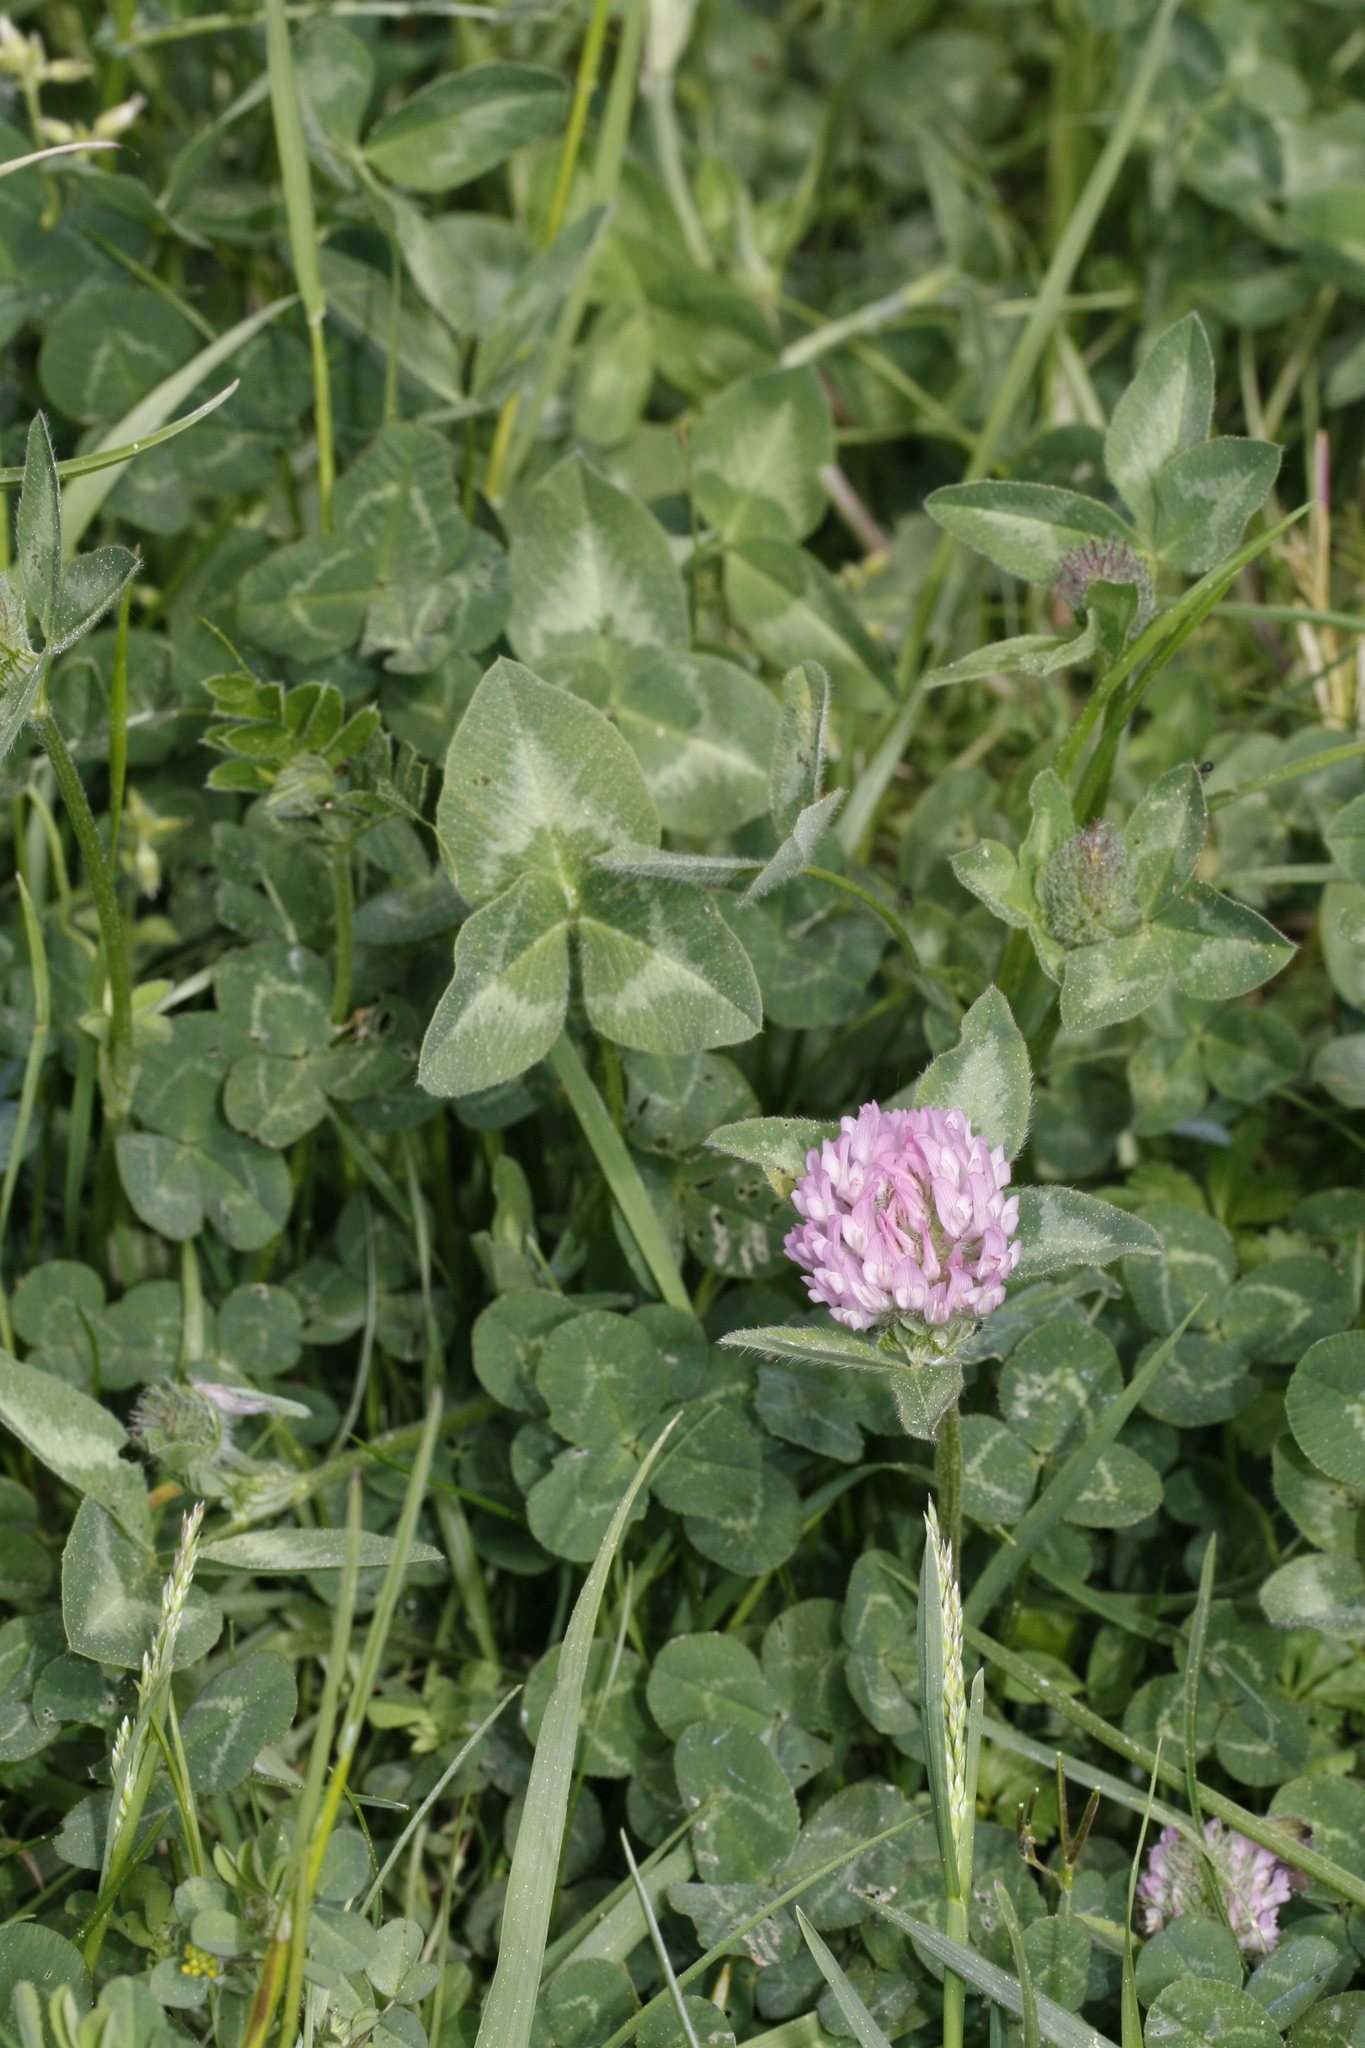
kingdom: Plantae
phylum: Tracheophyta
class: Magnoliopsida
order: Fabales
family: Fabaceae
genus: Trifolium
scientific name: Trifolium pratense
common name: Red clover
